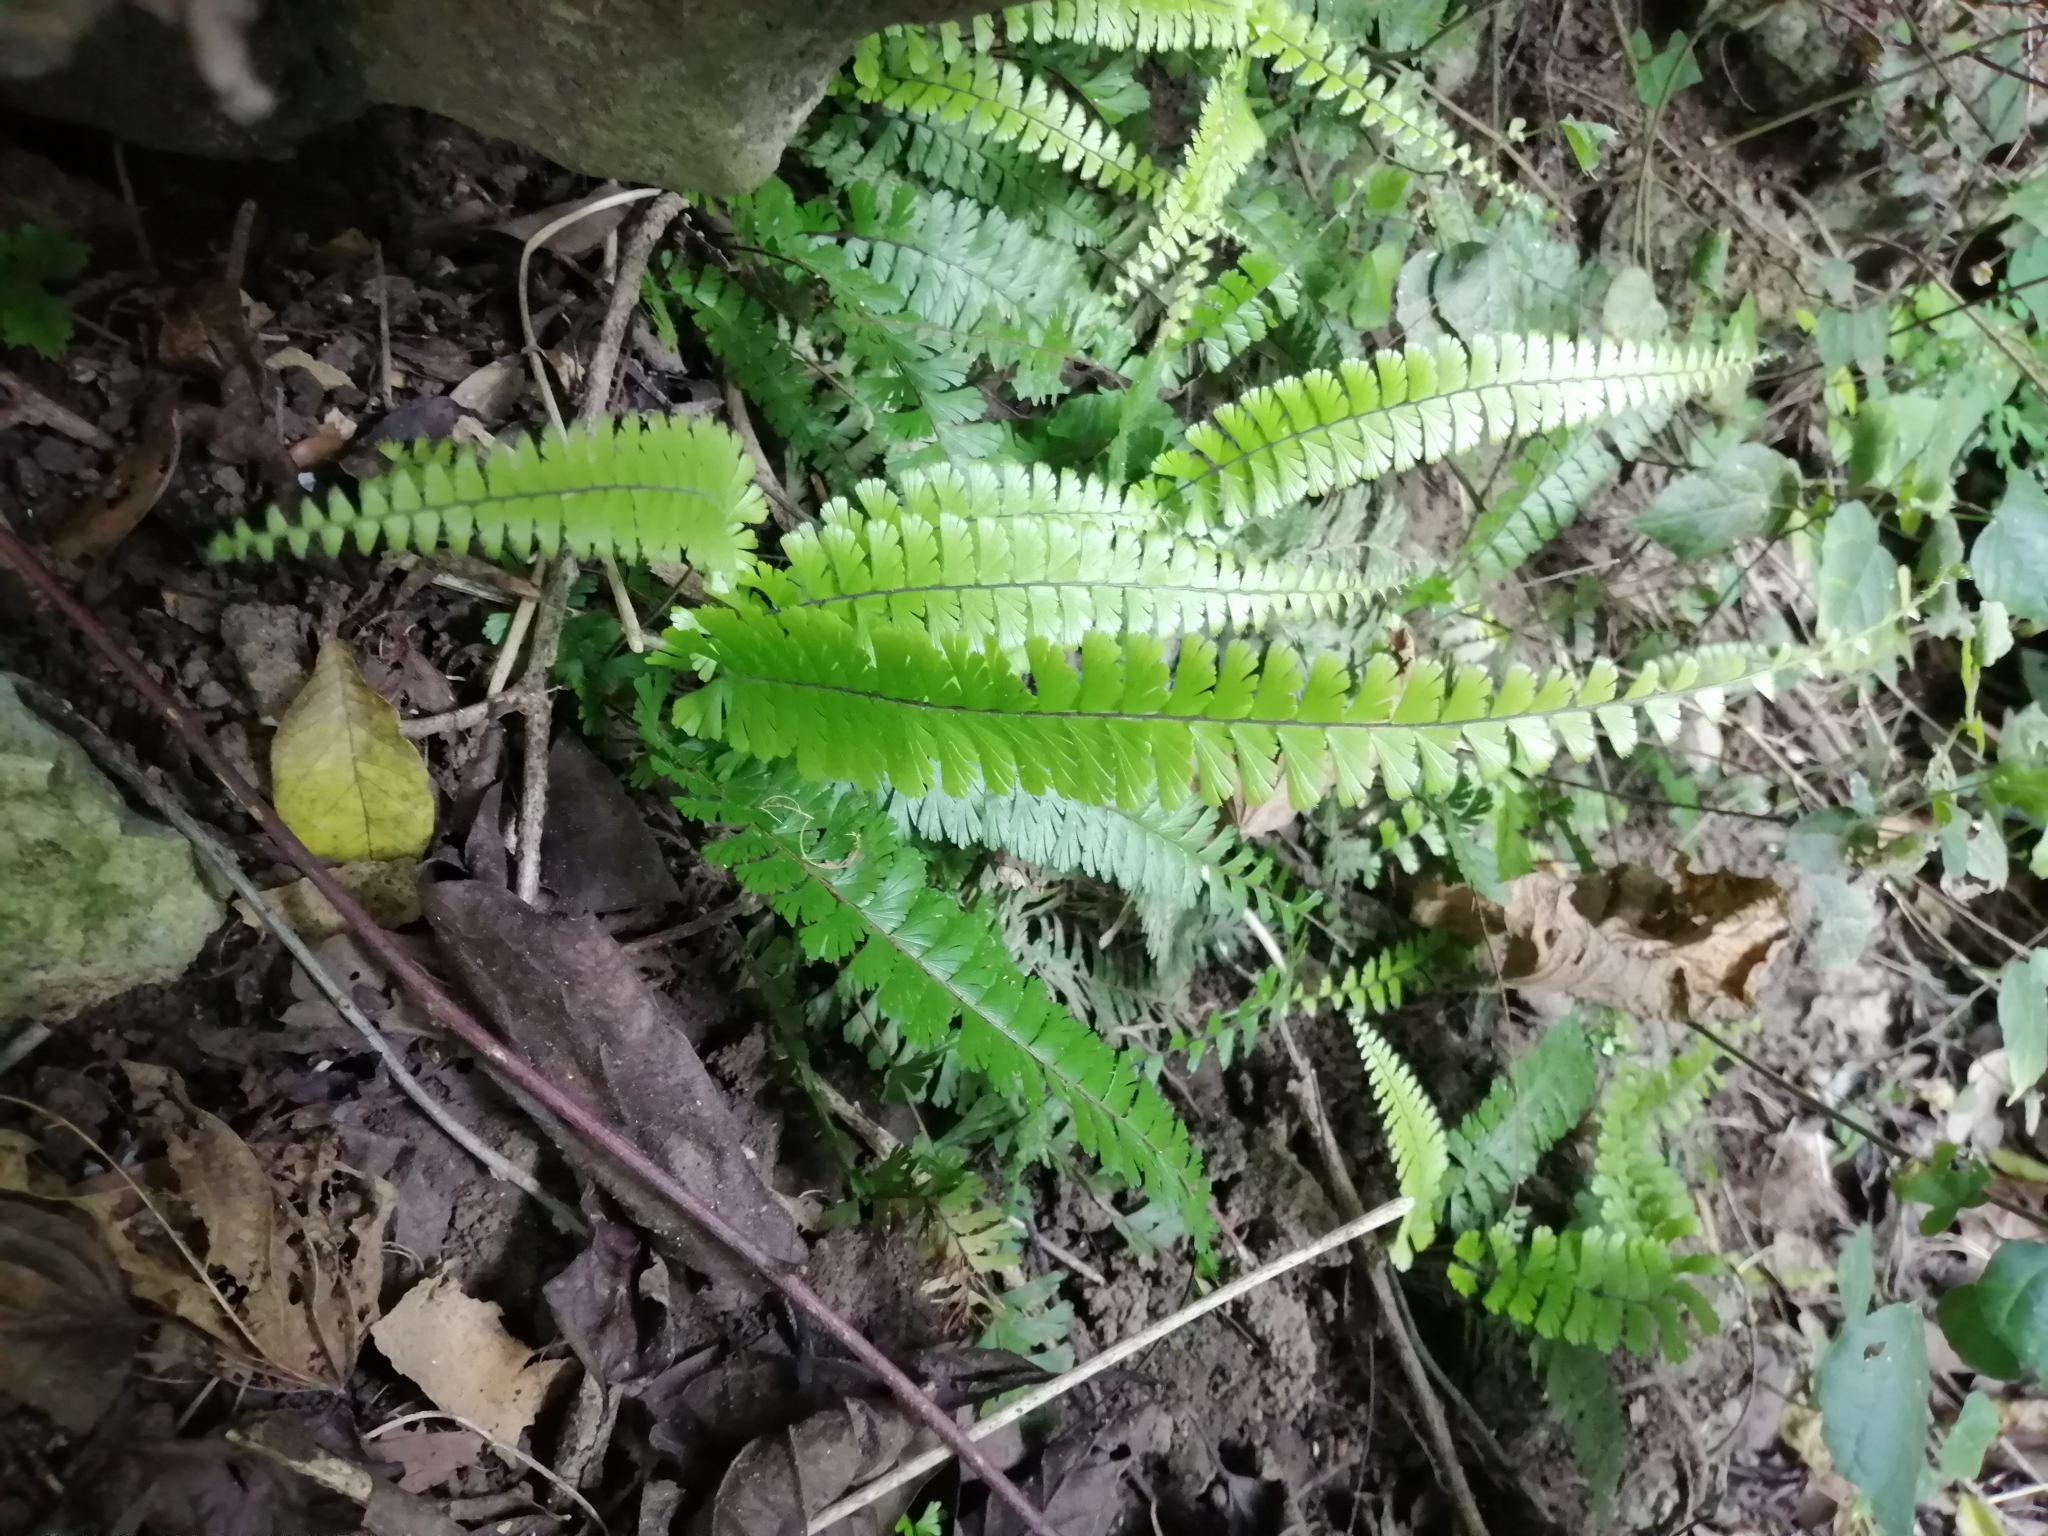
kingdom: Plantae
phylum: Tracheophyta
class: Polypodiopsida
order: Polypodiales
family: Pteridaceae
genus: Adiantum
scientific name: Adiantum caudatum
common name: Tailed maidenhair
